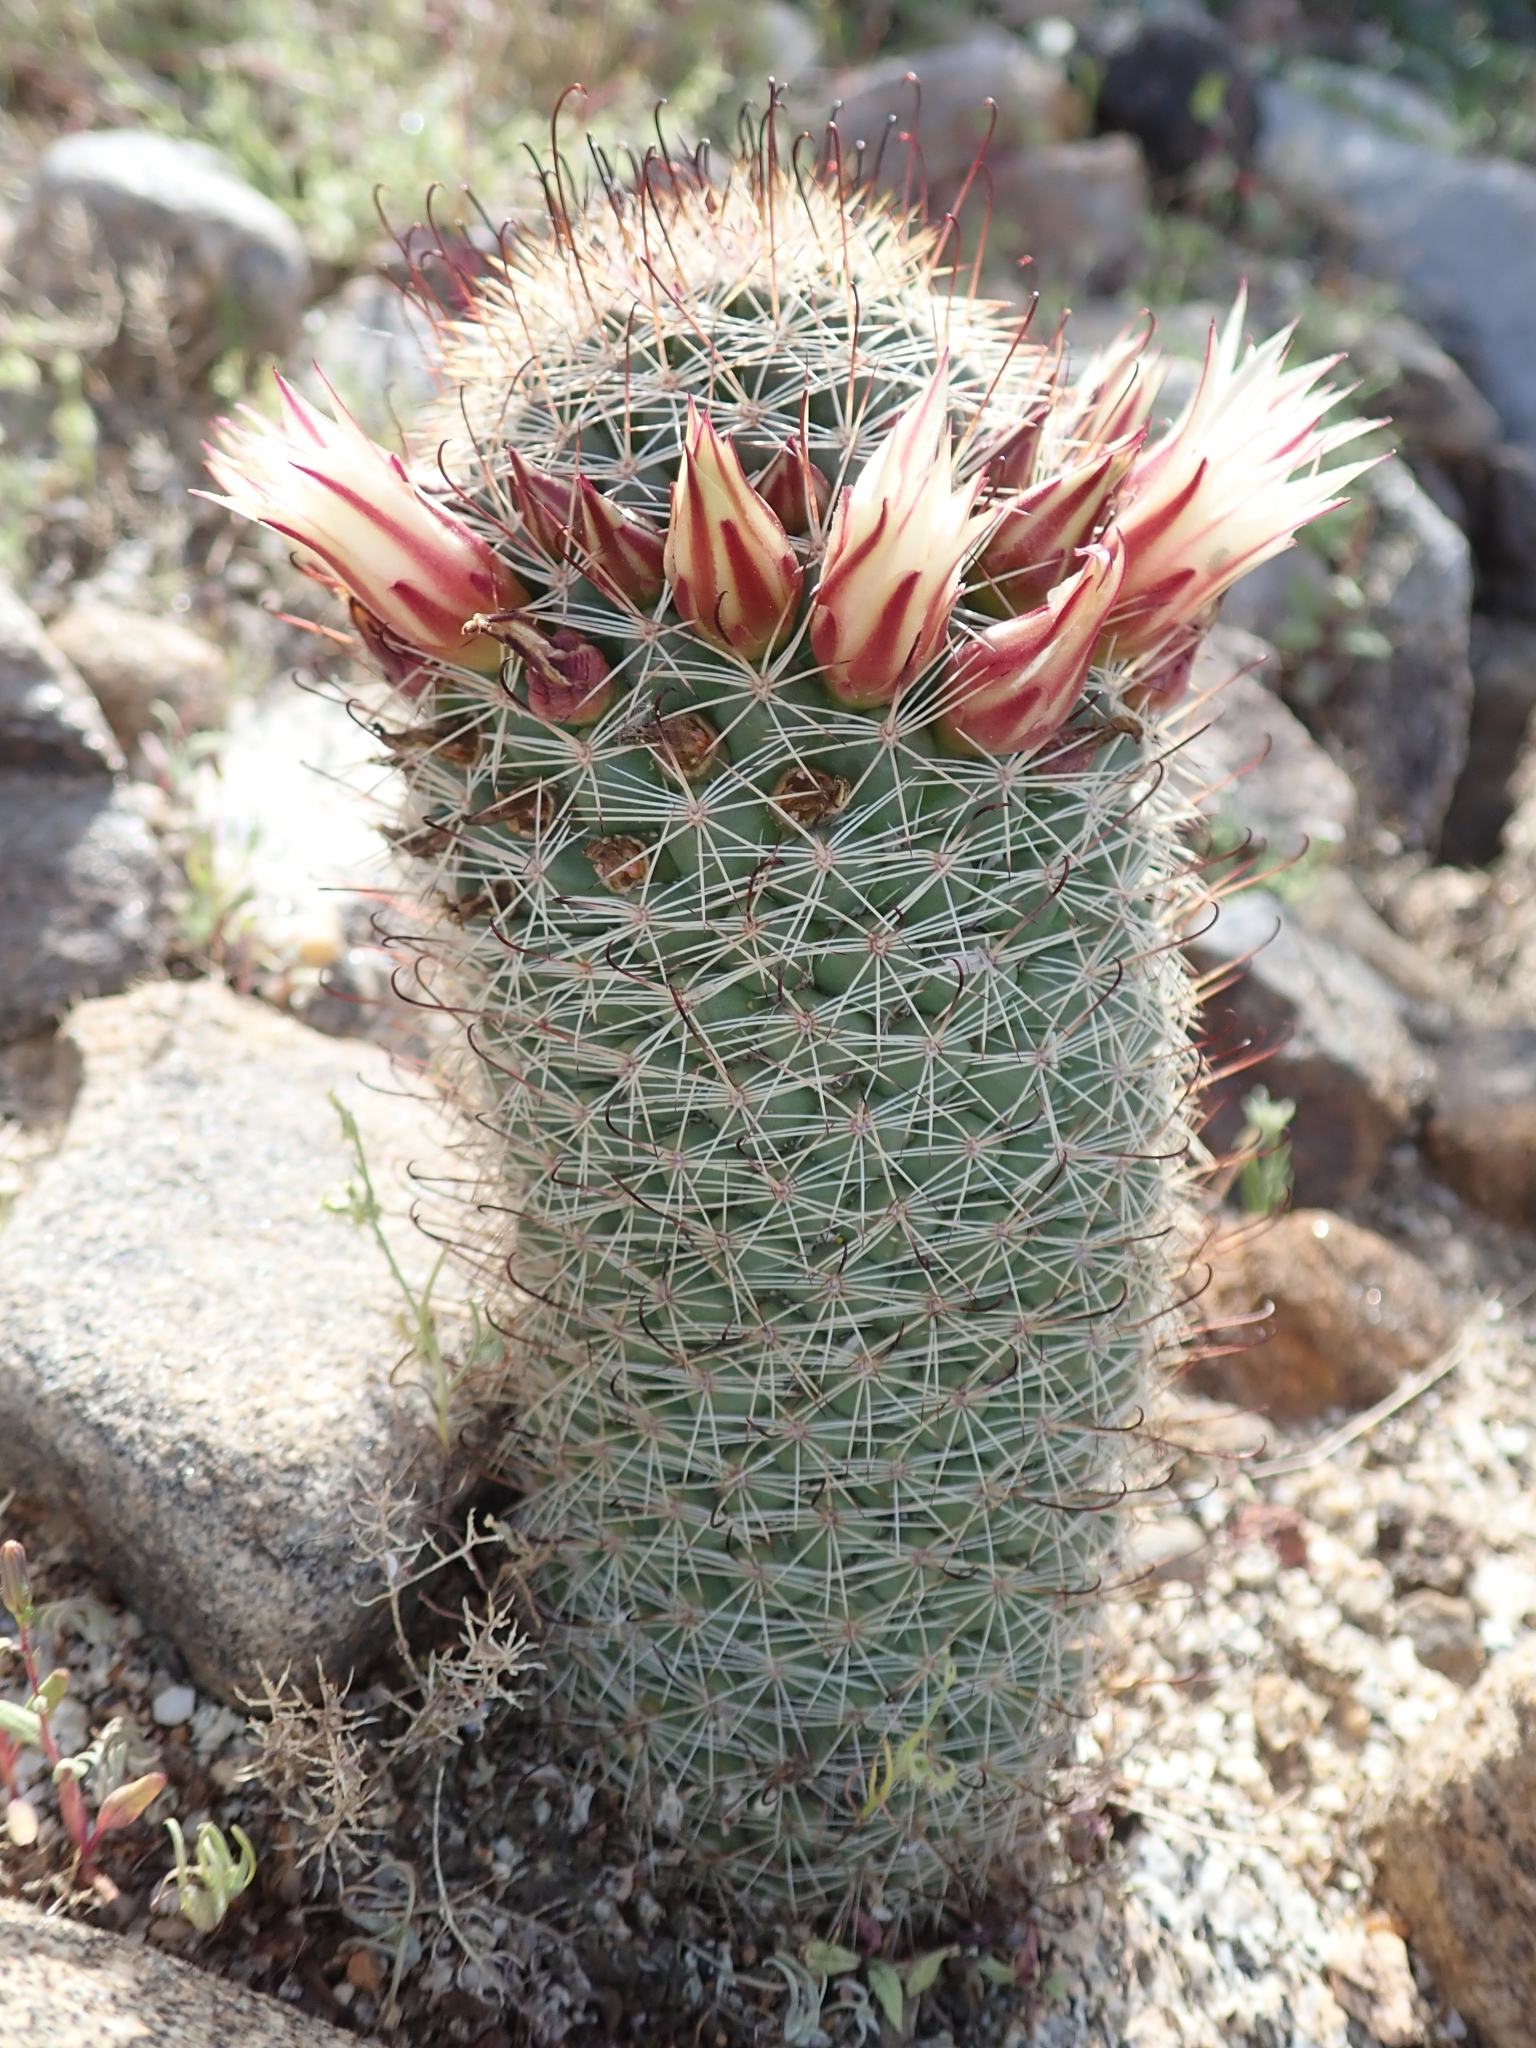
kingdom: Plantae
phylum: Tracheophyta
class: Magnoliopsida
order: Caryophyllales
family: Cactaceae
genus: Cochemiea
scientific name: Cochemiea dioica
